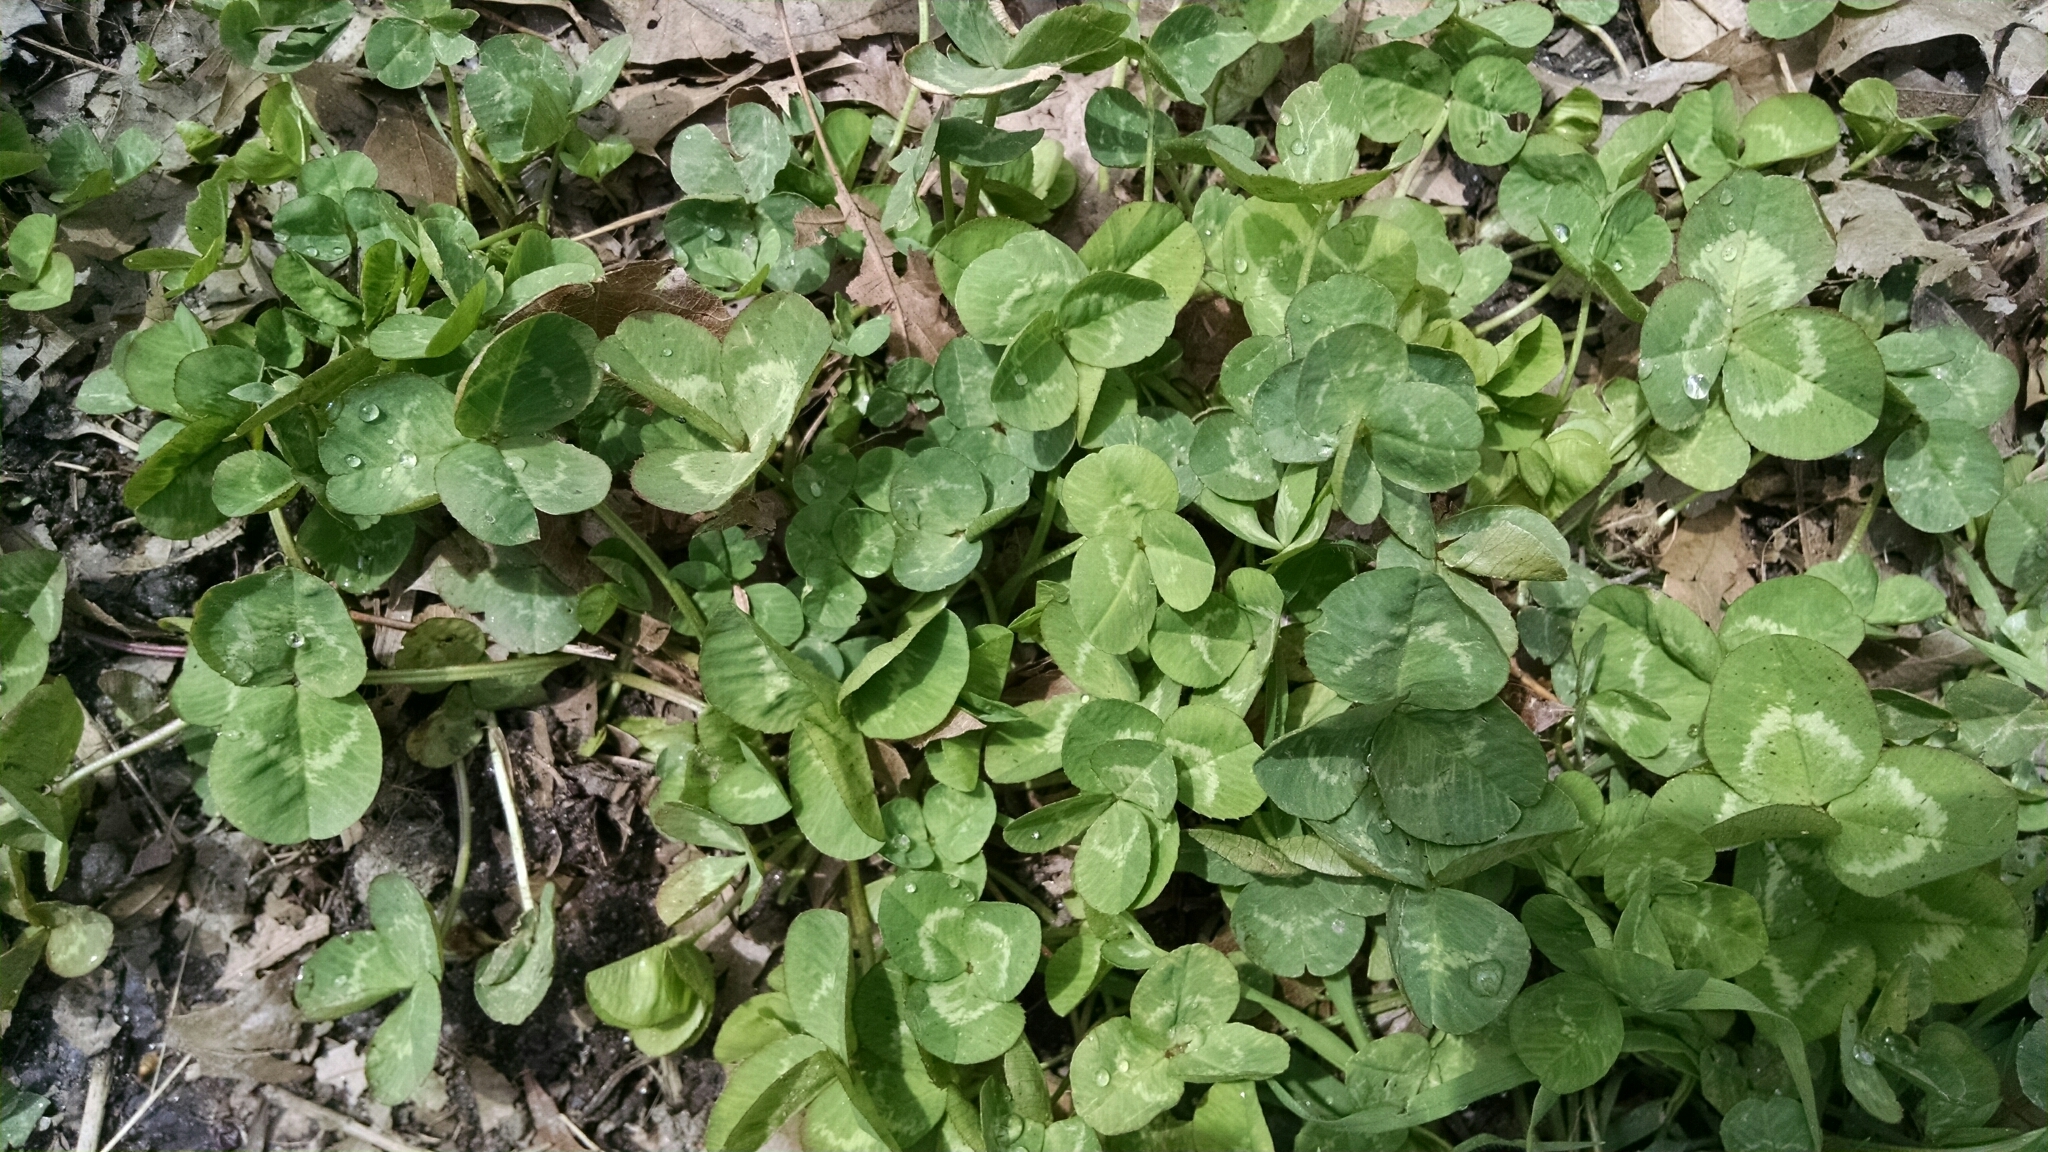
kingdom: Plantae
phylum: Tracheophyta
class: Magnoliopsida
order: Fabales
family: Fabaceae
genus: Trifolium
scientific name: Trifolium repens
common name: White clover
